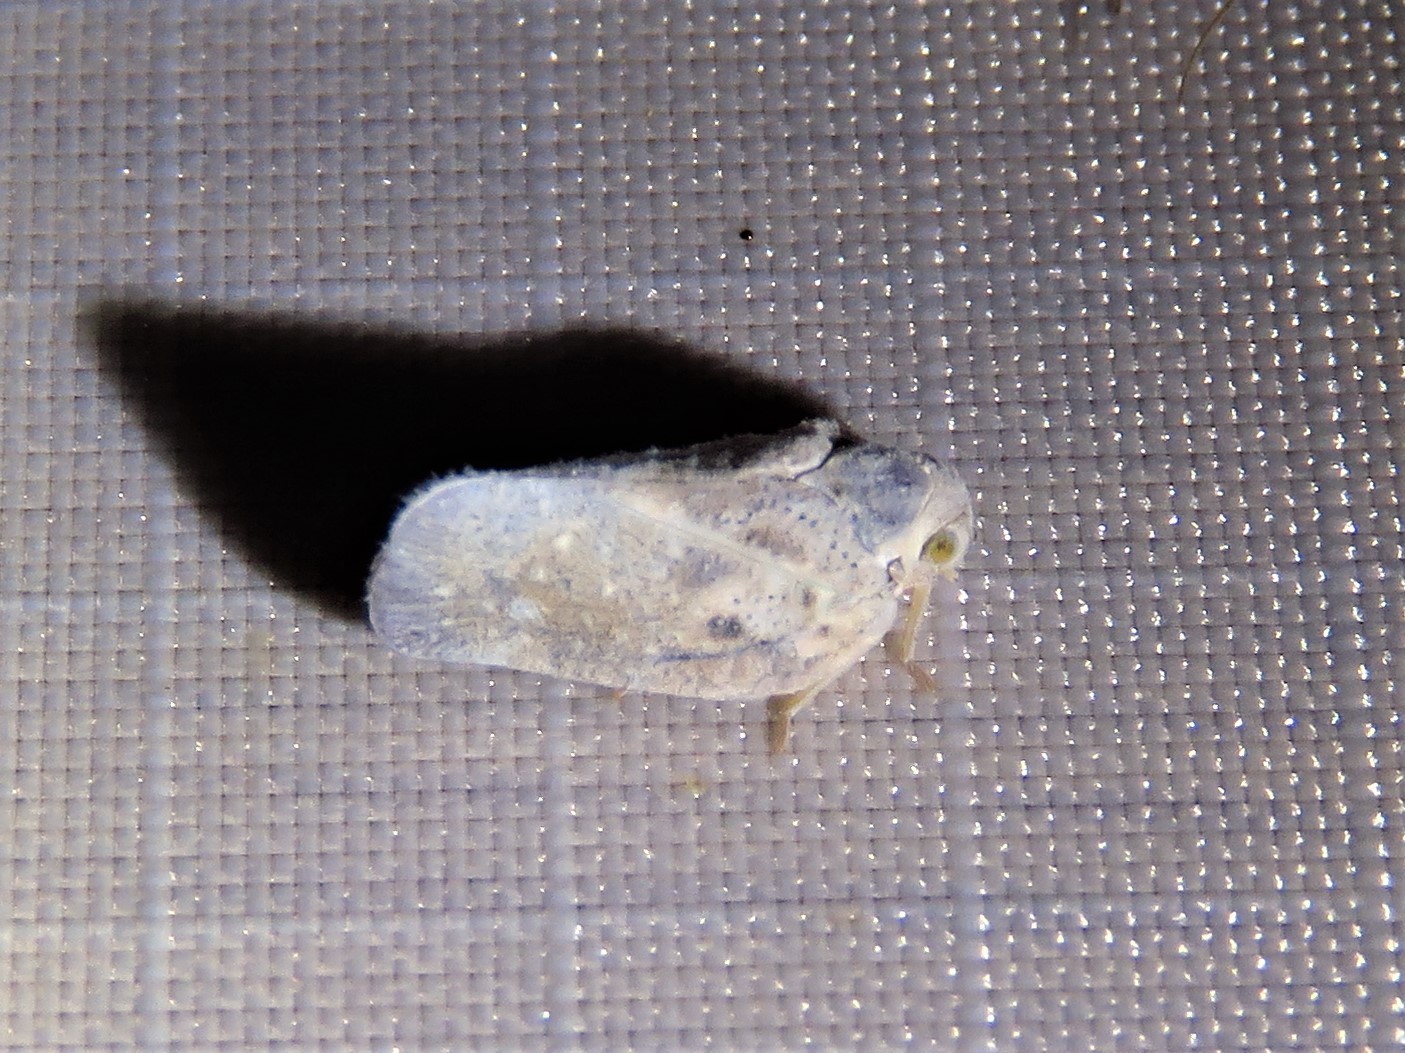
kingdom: Animalia
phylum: Arthropoda
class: Insecta
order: Hemiptera
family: Flatidae
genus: Metcalfa
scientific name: Metcalfa pruinosa
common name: Citrus flatid planthopper
